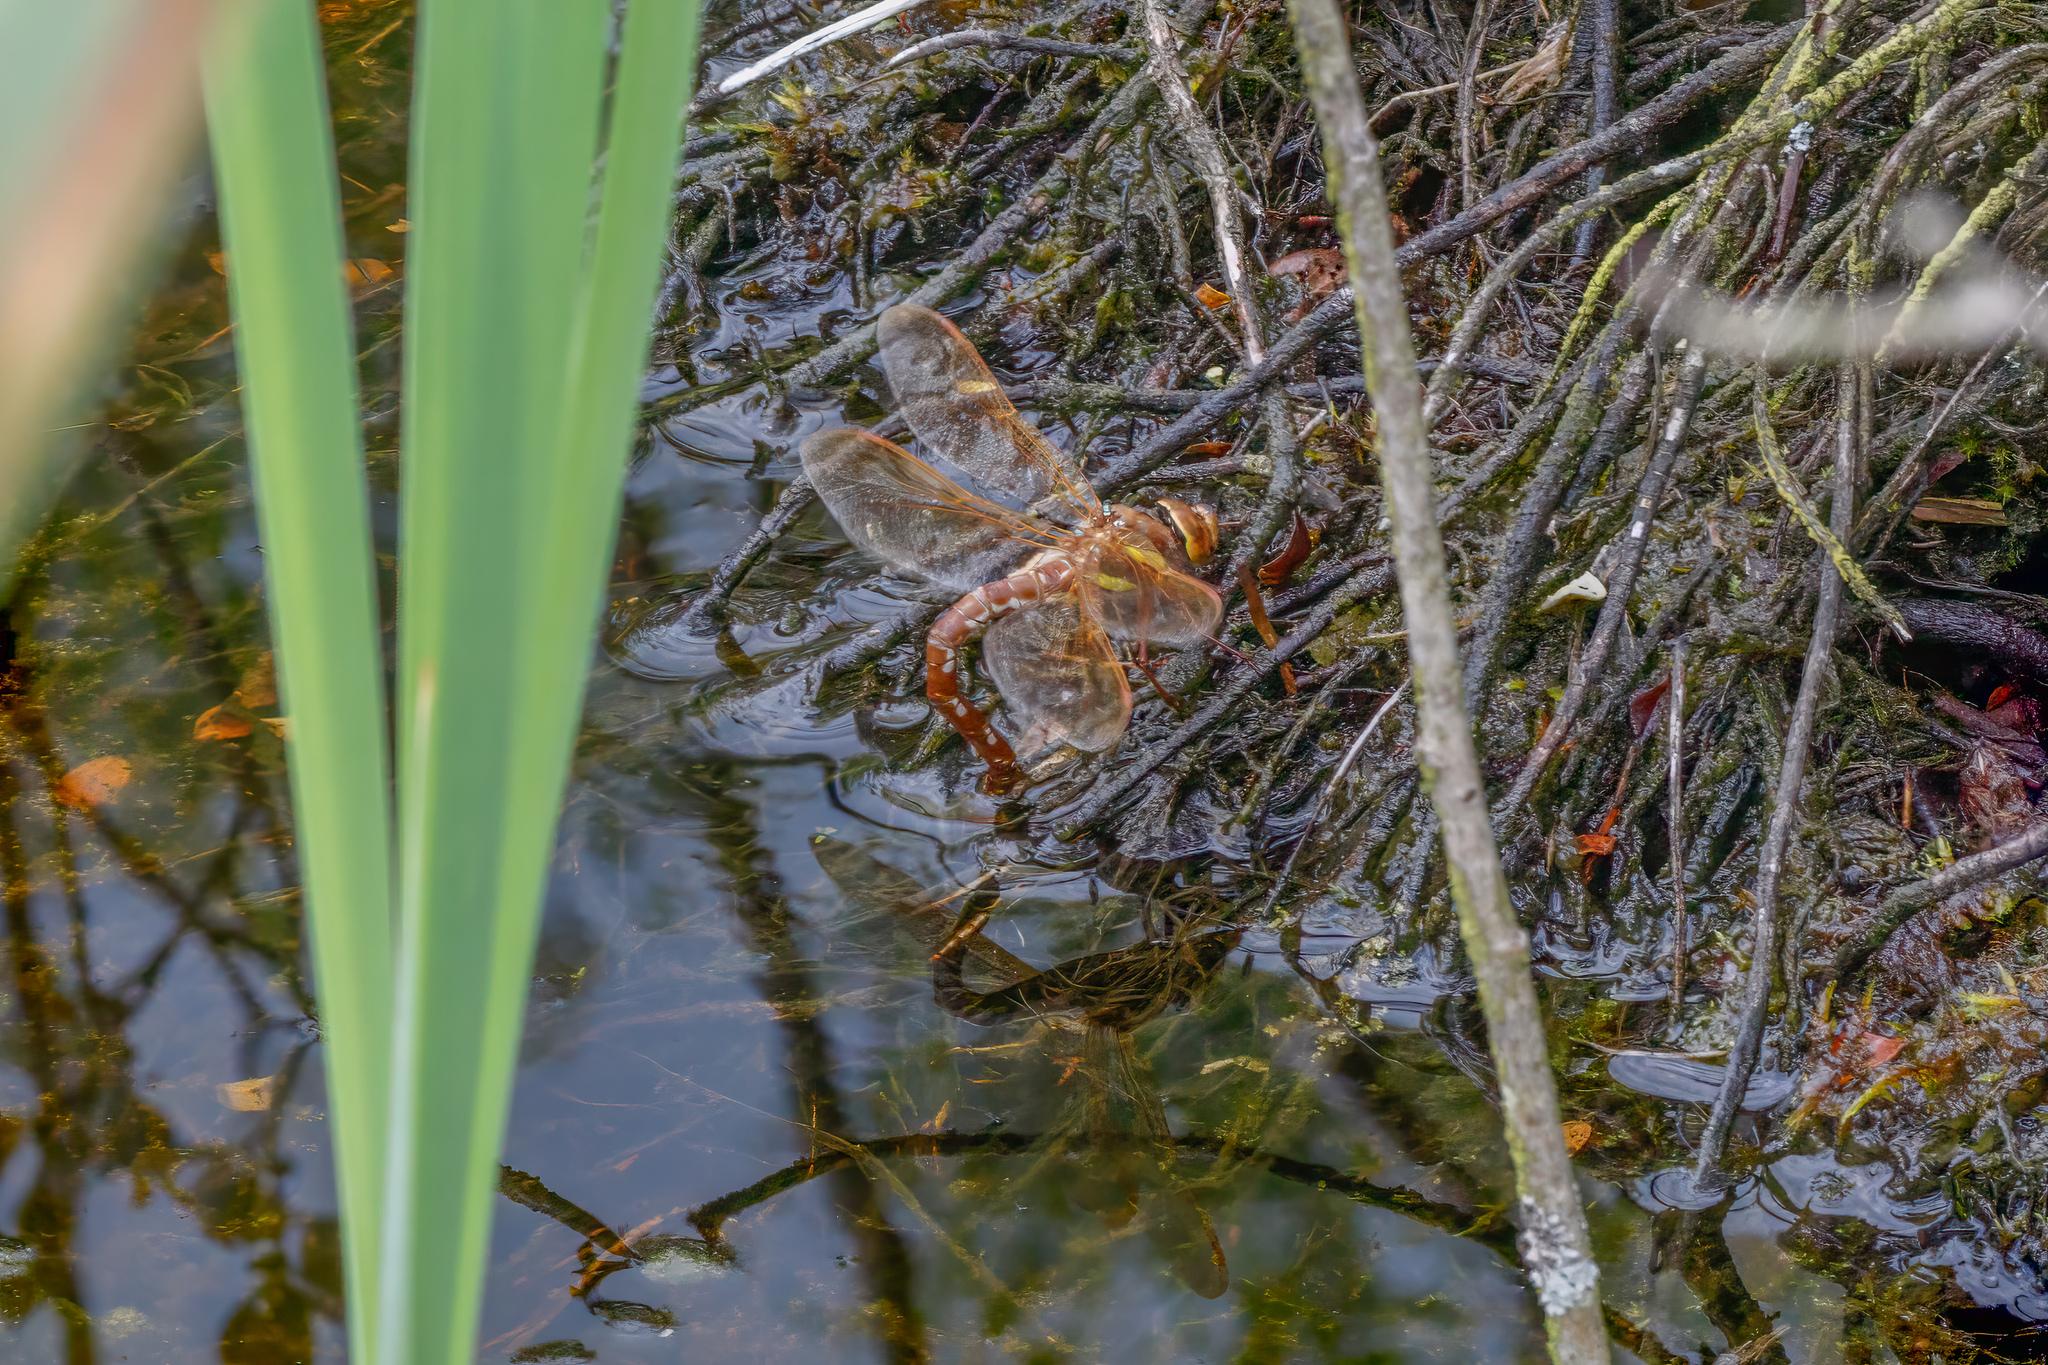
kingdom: Animalia
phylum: Arthropoda
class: Insecta
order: Odonata
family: Aeshnidae
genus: Aeshna
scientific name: Aeshna grandis
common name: Brown hawker
